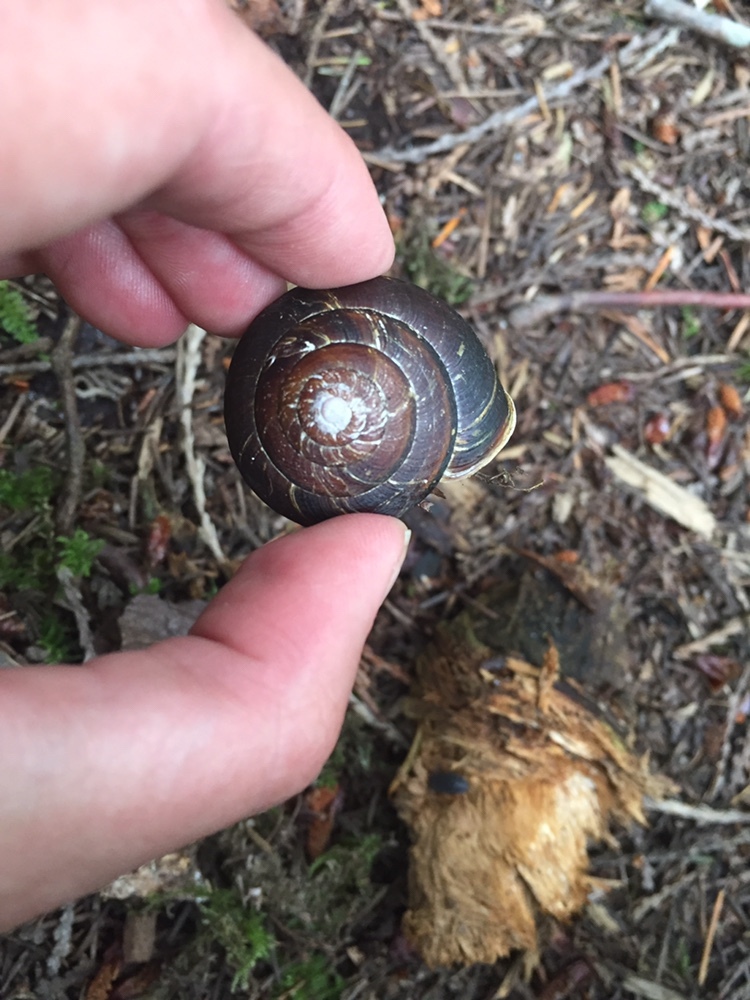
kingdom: Animalia
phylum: Mollusca
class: Gastropoda
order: Stylommatophora
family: Xanthonychidae
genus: Monadenia
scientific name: Monadenia fidelis
